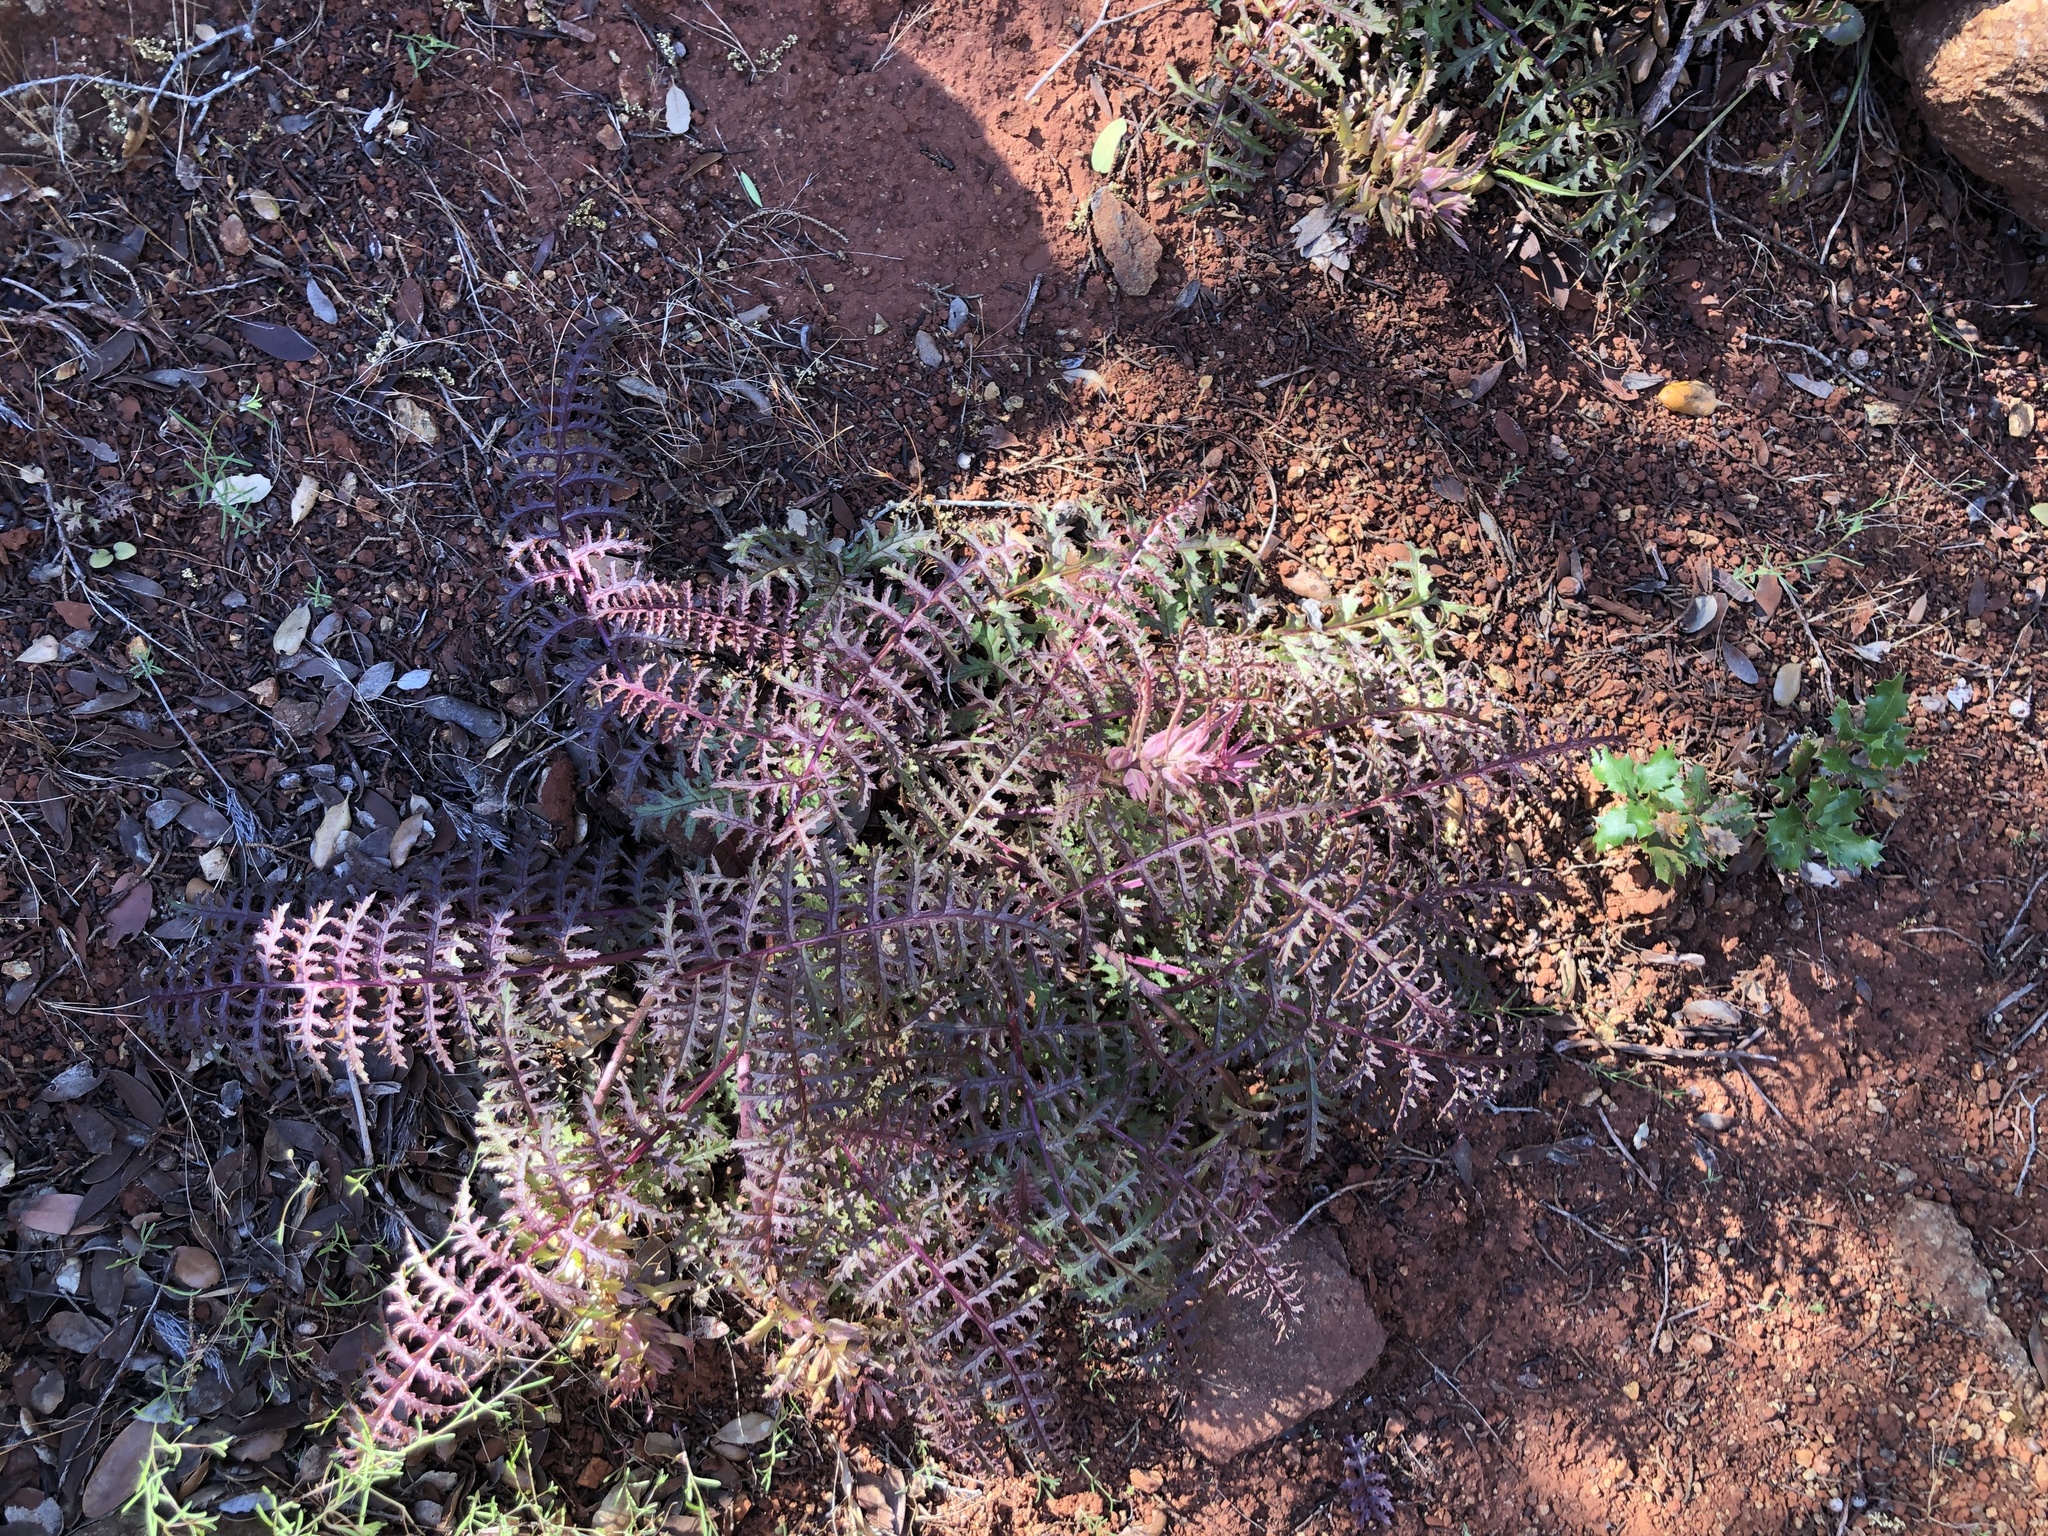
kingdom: Plantae
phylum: Tracheophyta
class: Magnoliopsida
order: Lamiales
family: Orobanchaceae
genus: Pedicularis
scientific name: Pedicularis densiflora
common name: Indian warrior
